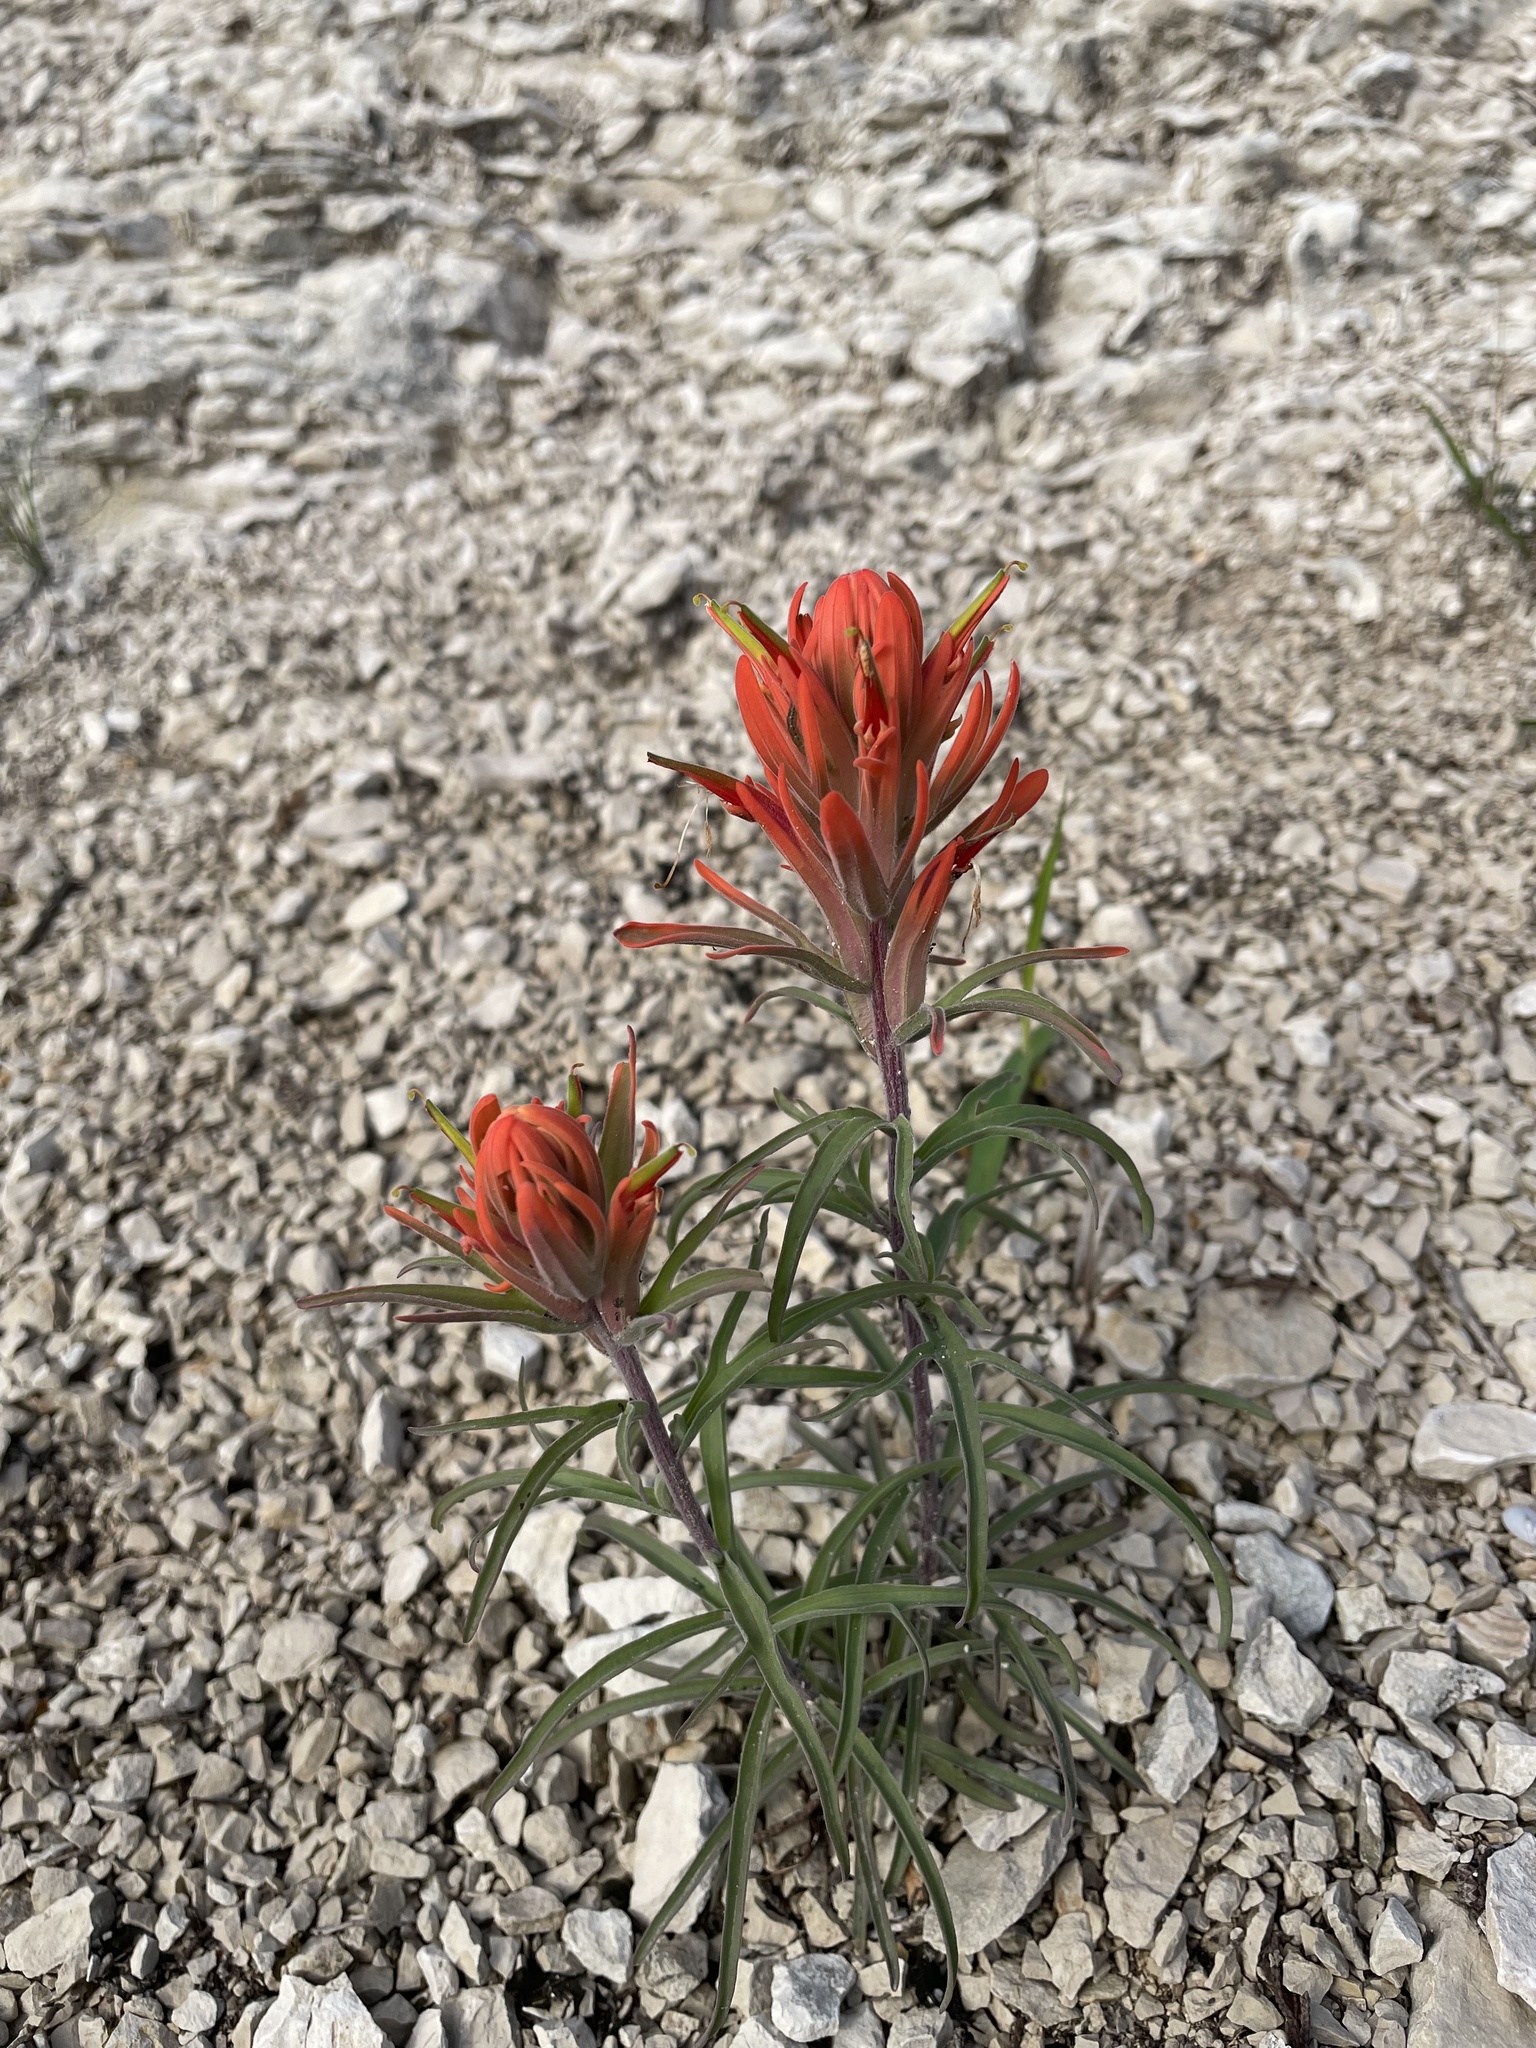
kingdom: Plantae
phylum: Tracheophyta
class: Magnoliopsida
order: Lamiales
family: Orobanchaceae
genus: Castilleja
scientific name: Castilleja lindheimeri
